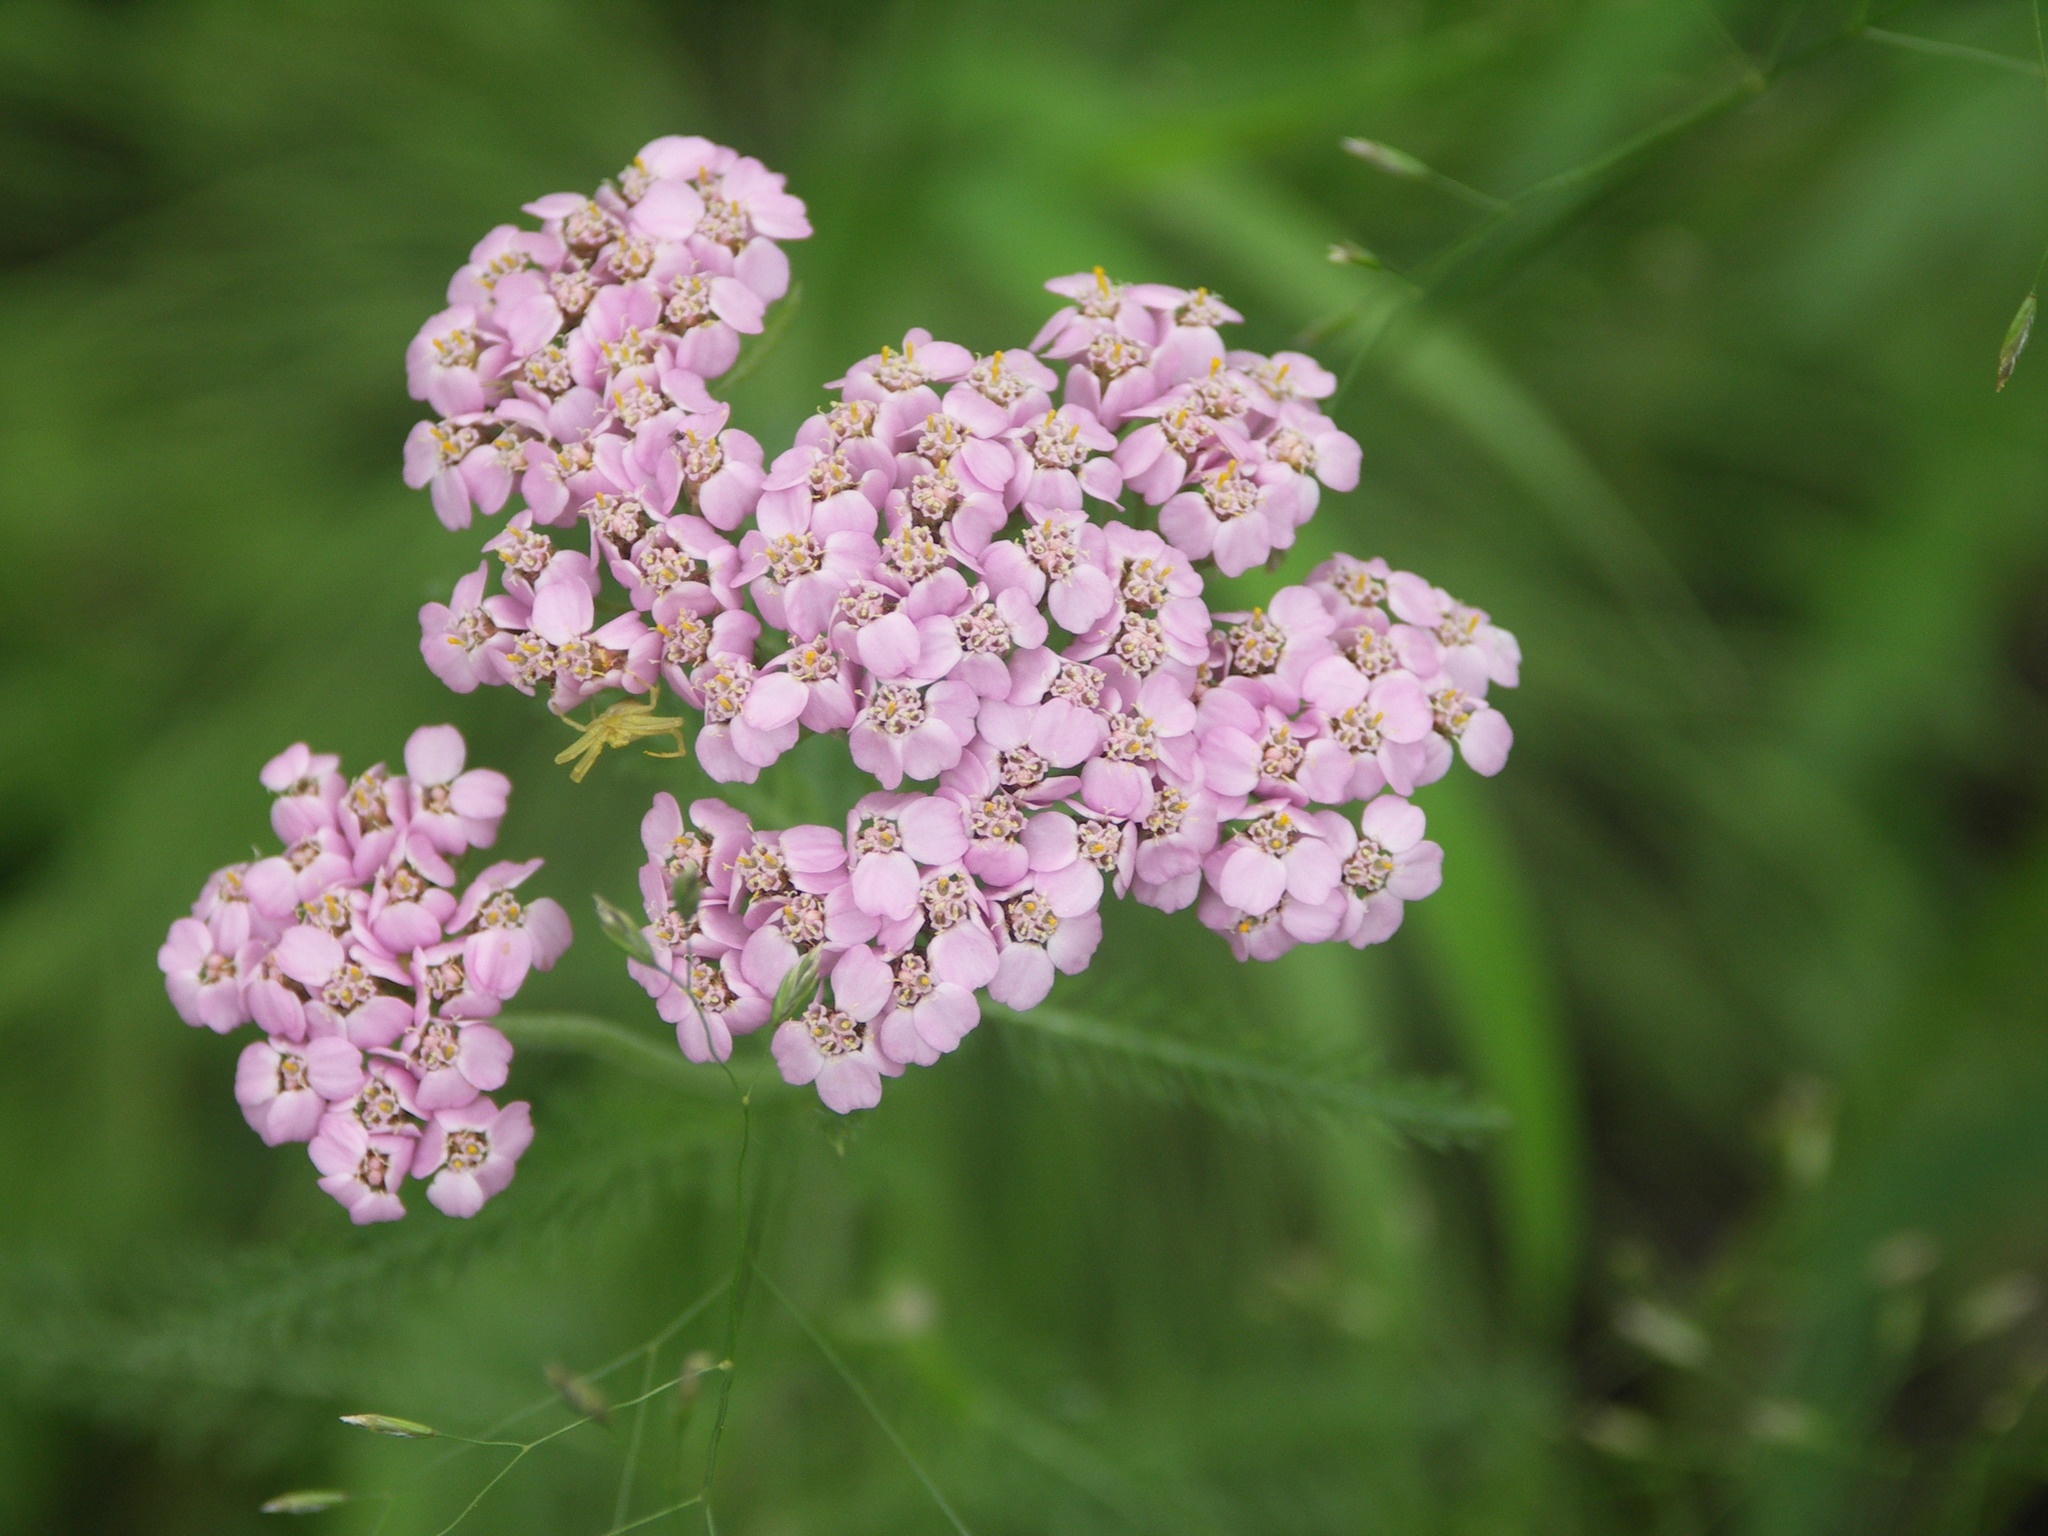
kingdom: Plantae
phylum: Tracheophyta
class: Magnoliopsida
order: Asterales
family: Asteraceae
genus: Achillea
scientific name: Achillea asiatica
